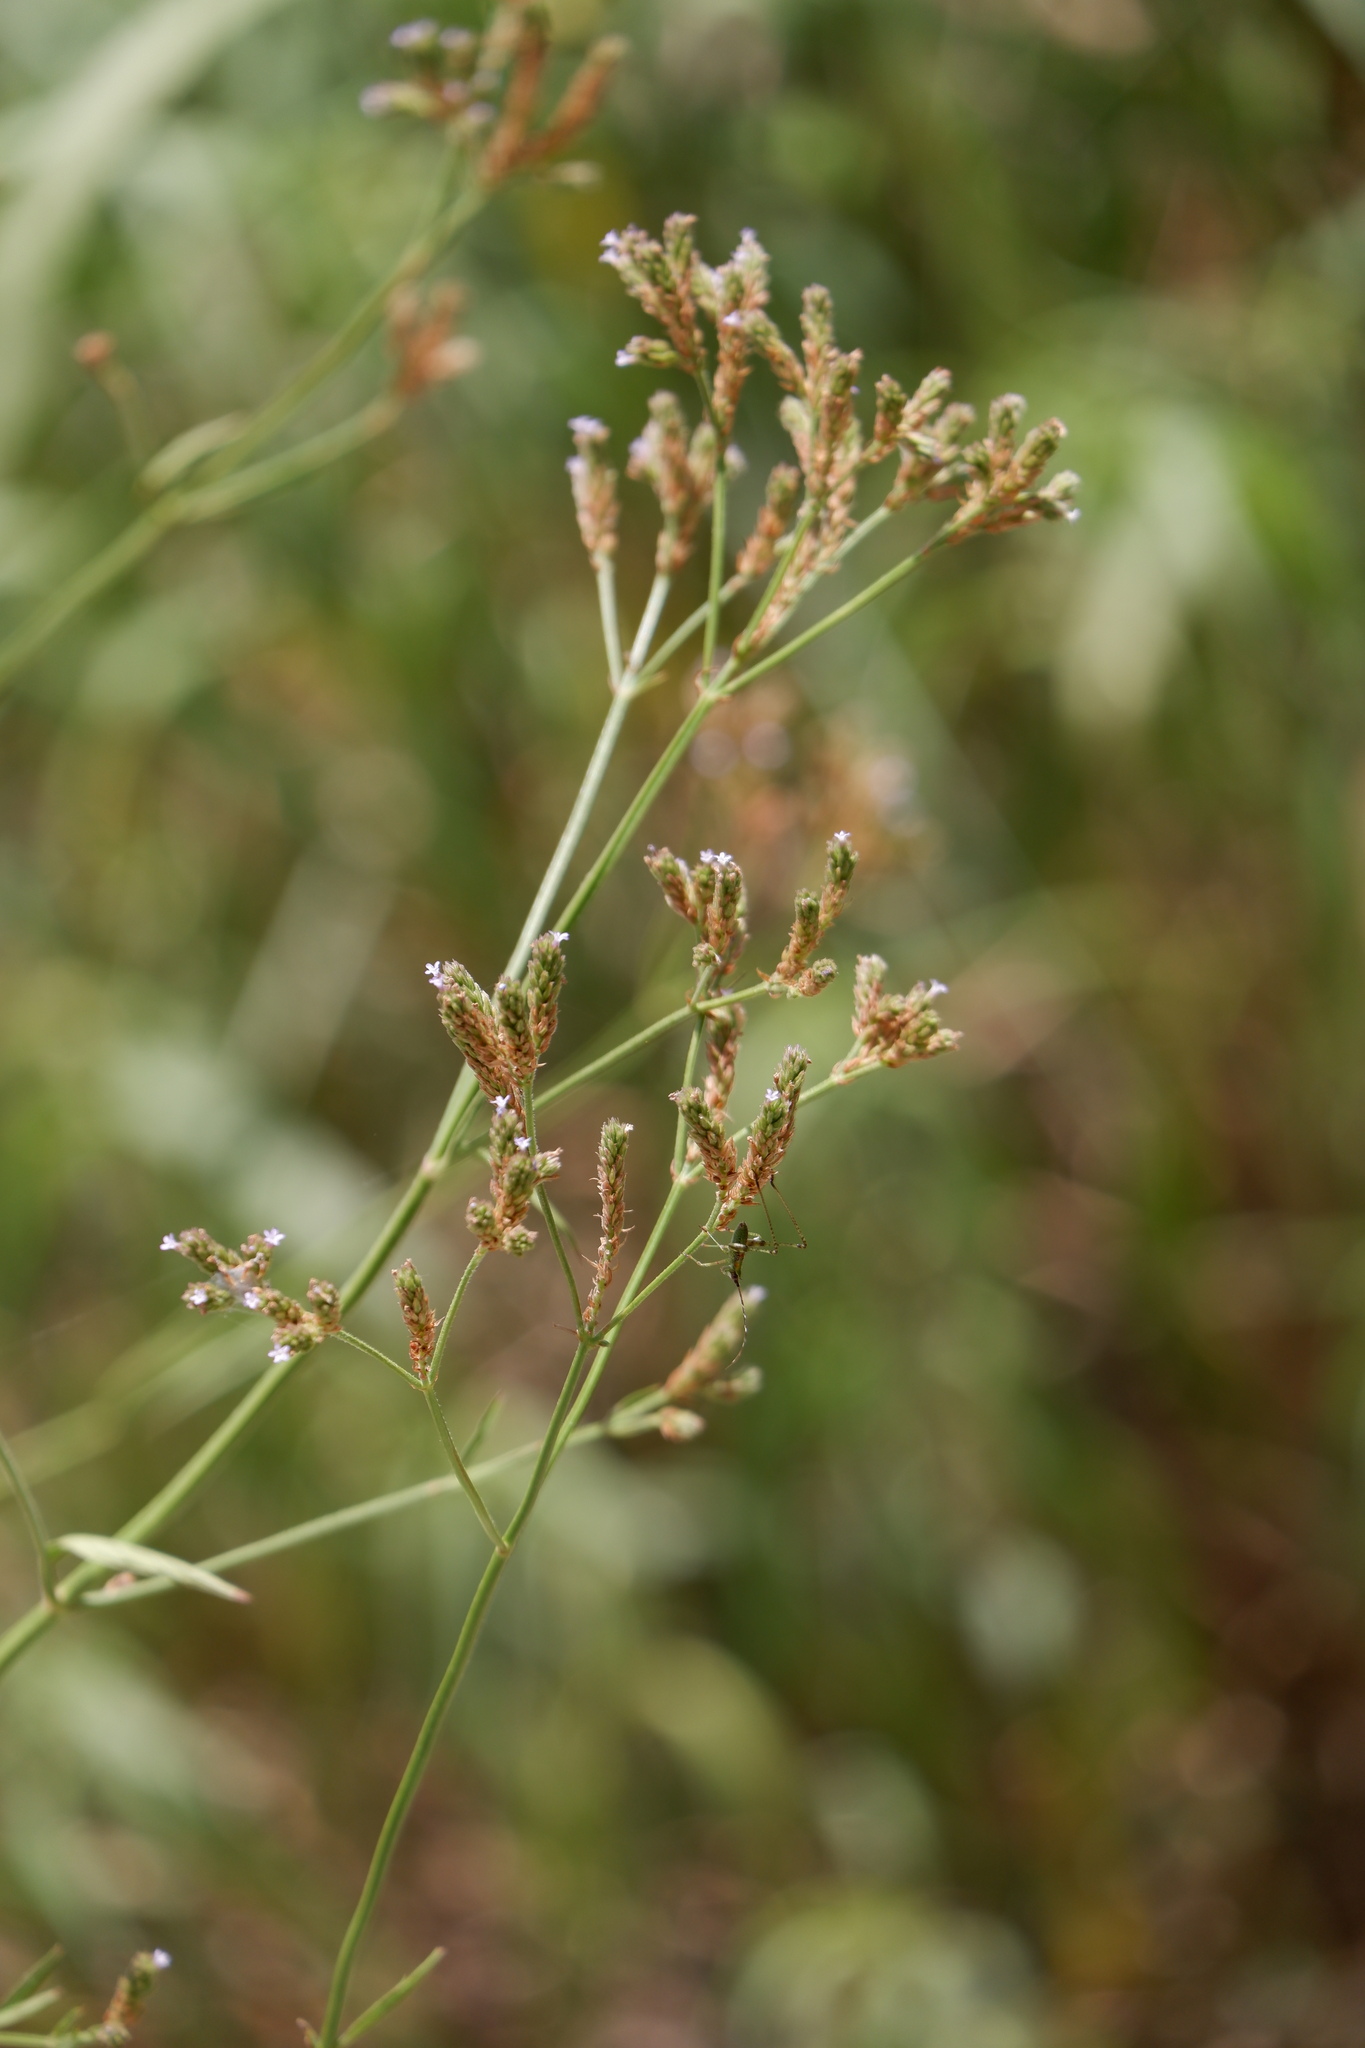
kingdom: Plantae
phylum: Tracheophyta
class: Magnoliopsida
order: Lamiales
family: Verbenaceae
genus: Verbena
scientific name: Verbena brasiliensis
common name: Brazilian vervain
